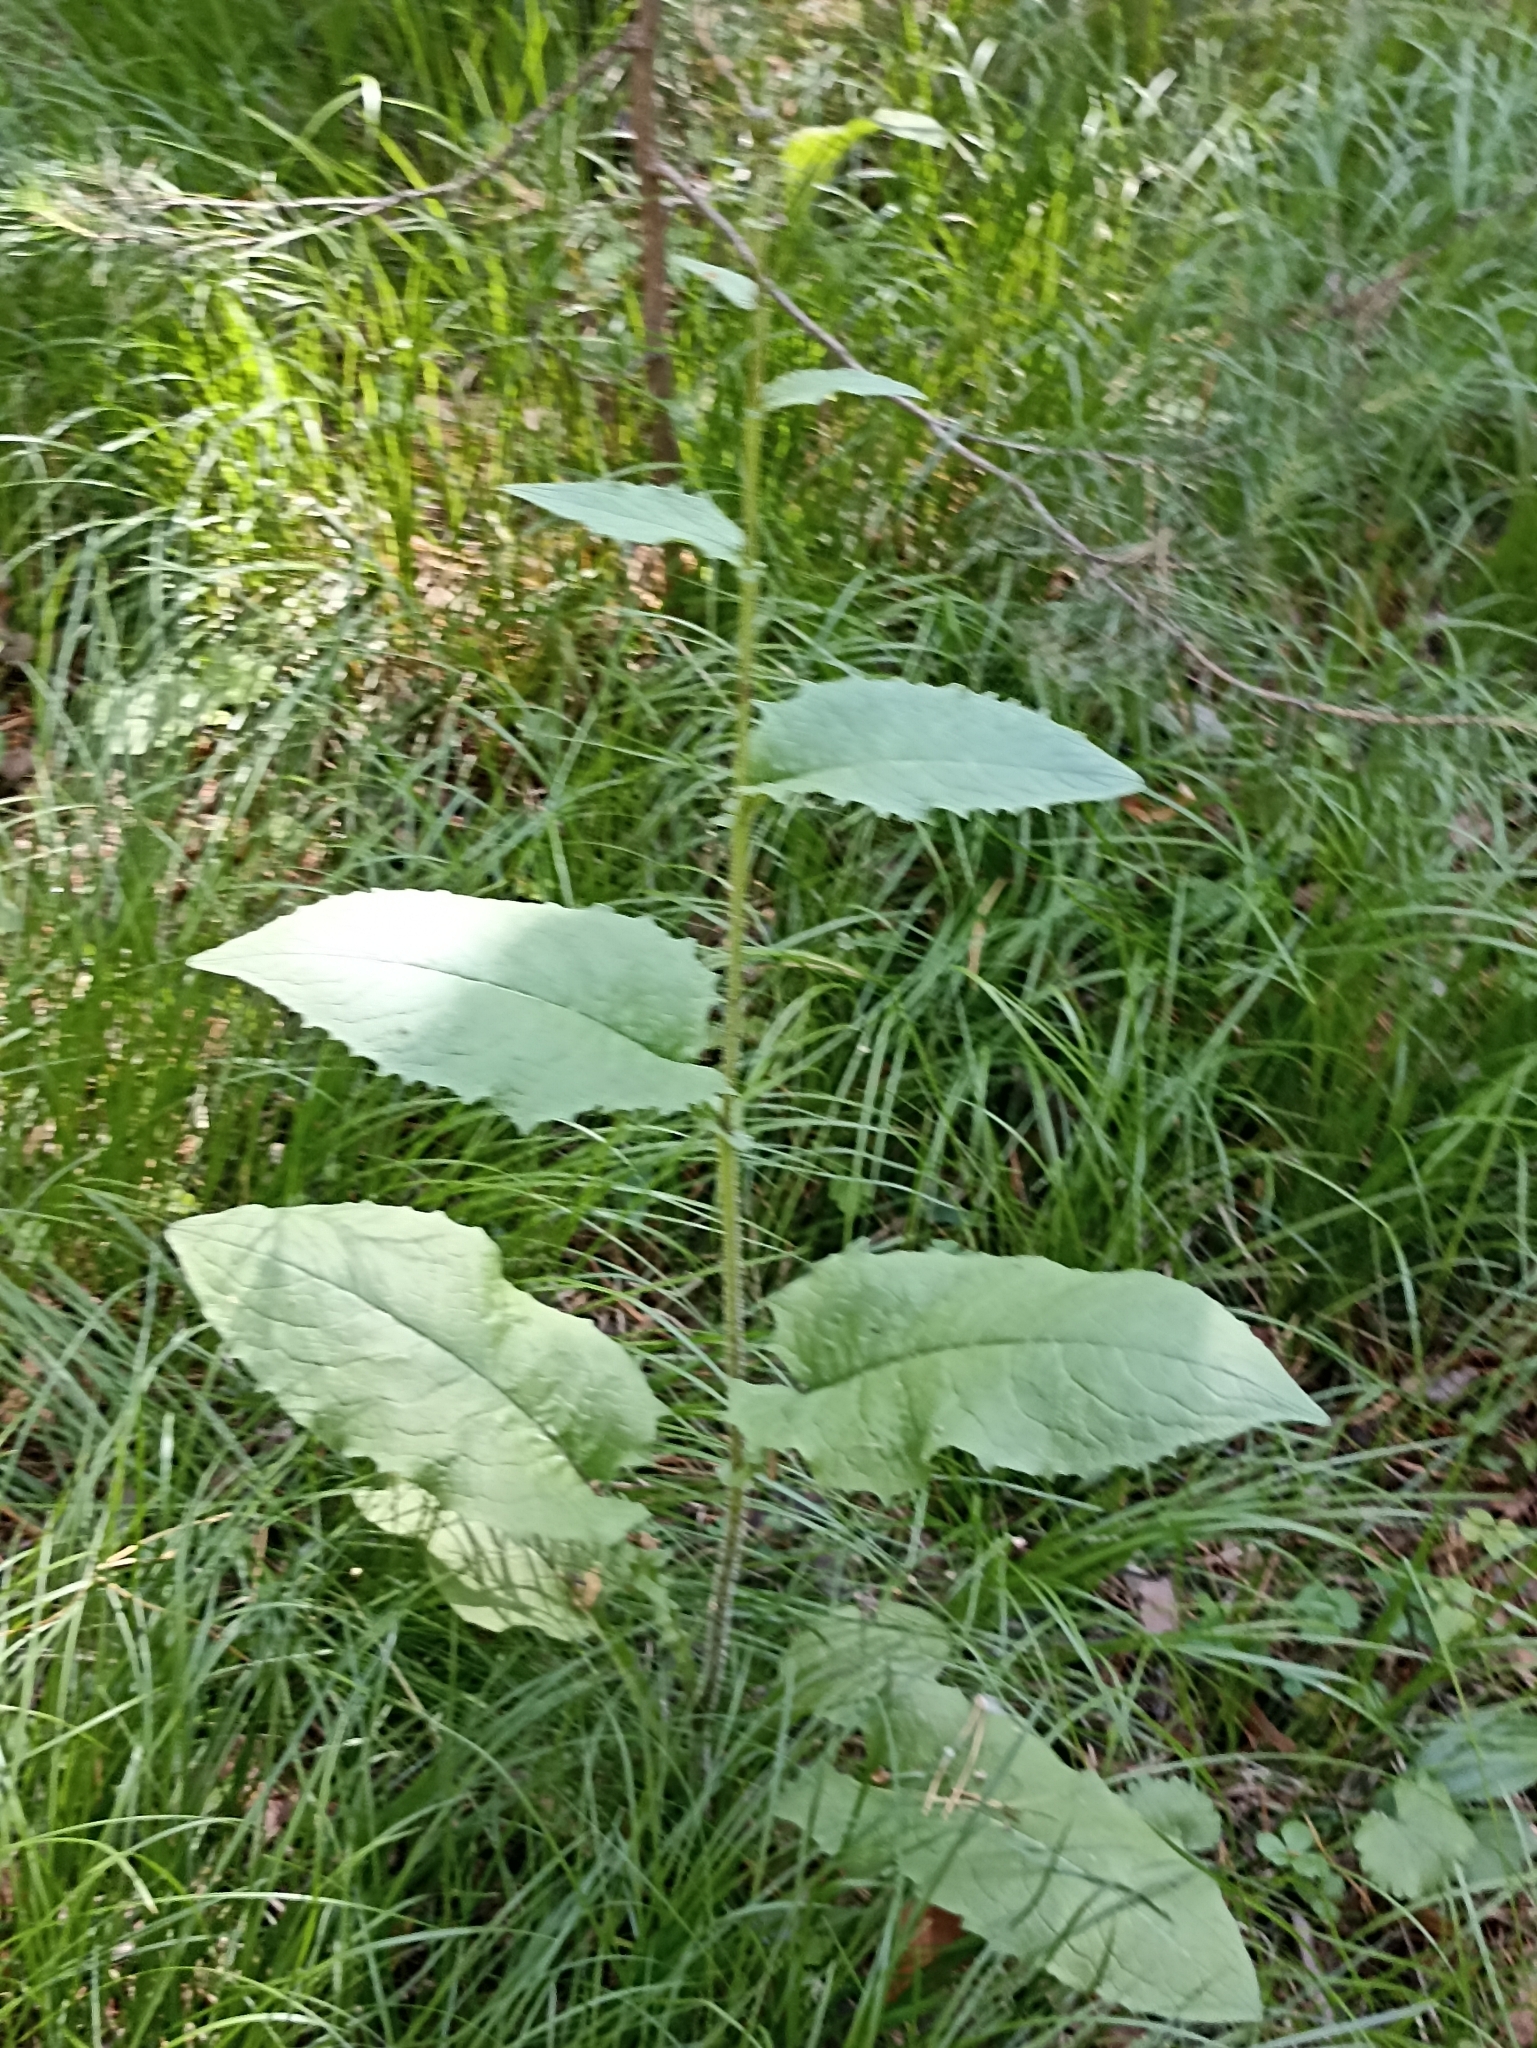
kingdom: Plantae
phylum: Tracheophyta
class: Magnoliopsida
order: Asterales
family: Asteraceae
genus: Crepis
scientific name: Crepis sibirica
